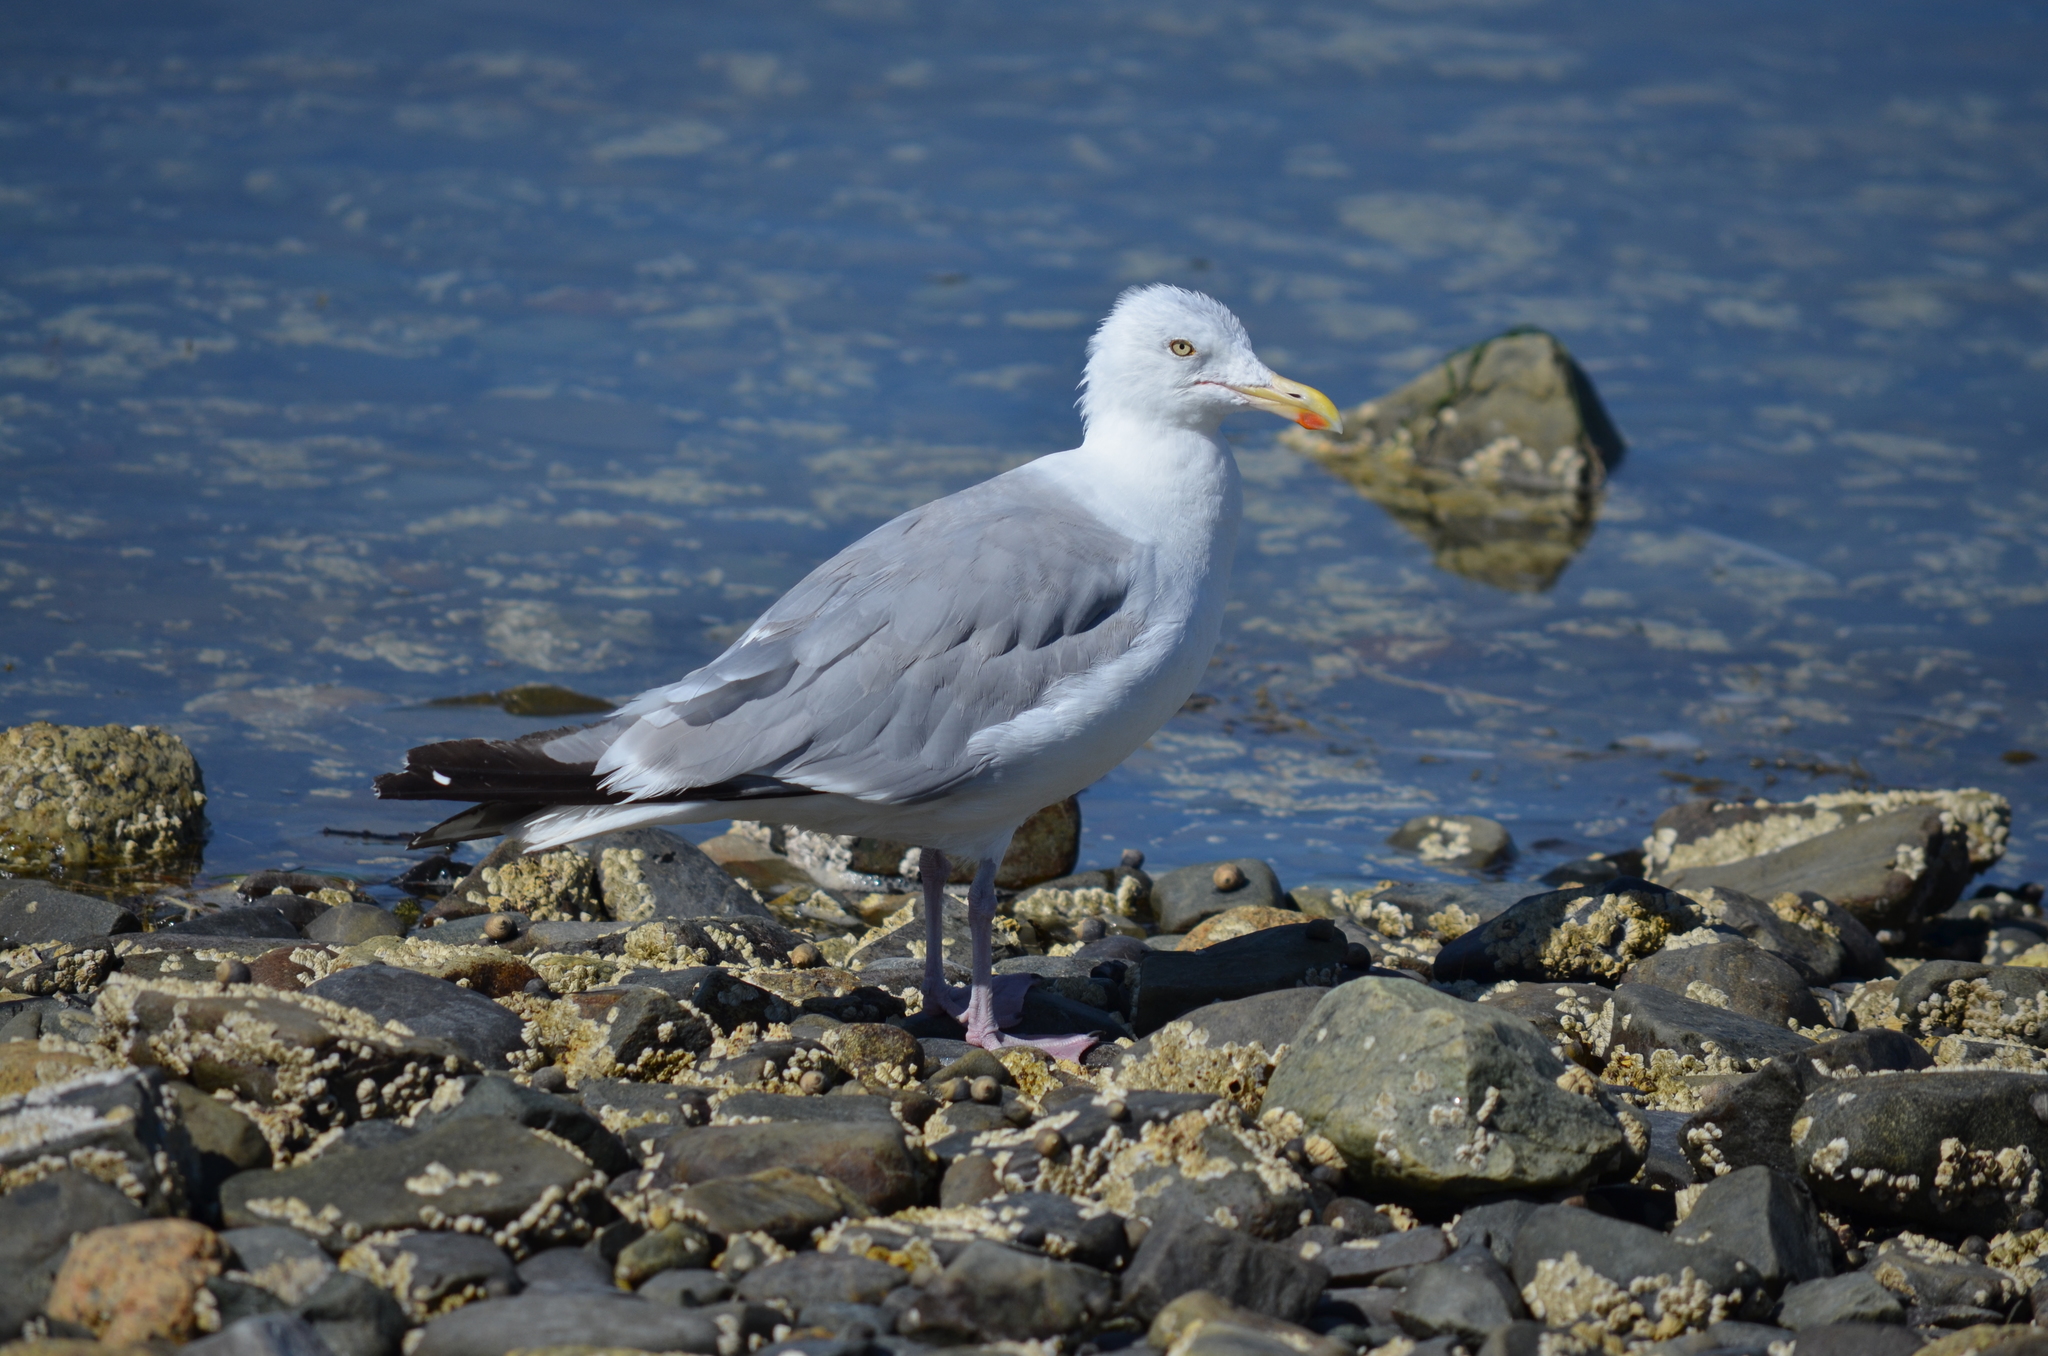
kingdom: Animalia
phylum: Chordata
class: Aves
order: Charadriiformes
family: Laridae
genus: Larus
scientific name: Larus argentatus
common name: Herring gull
